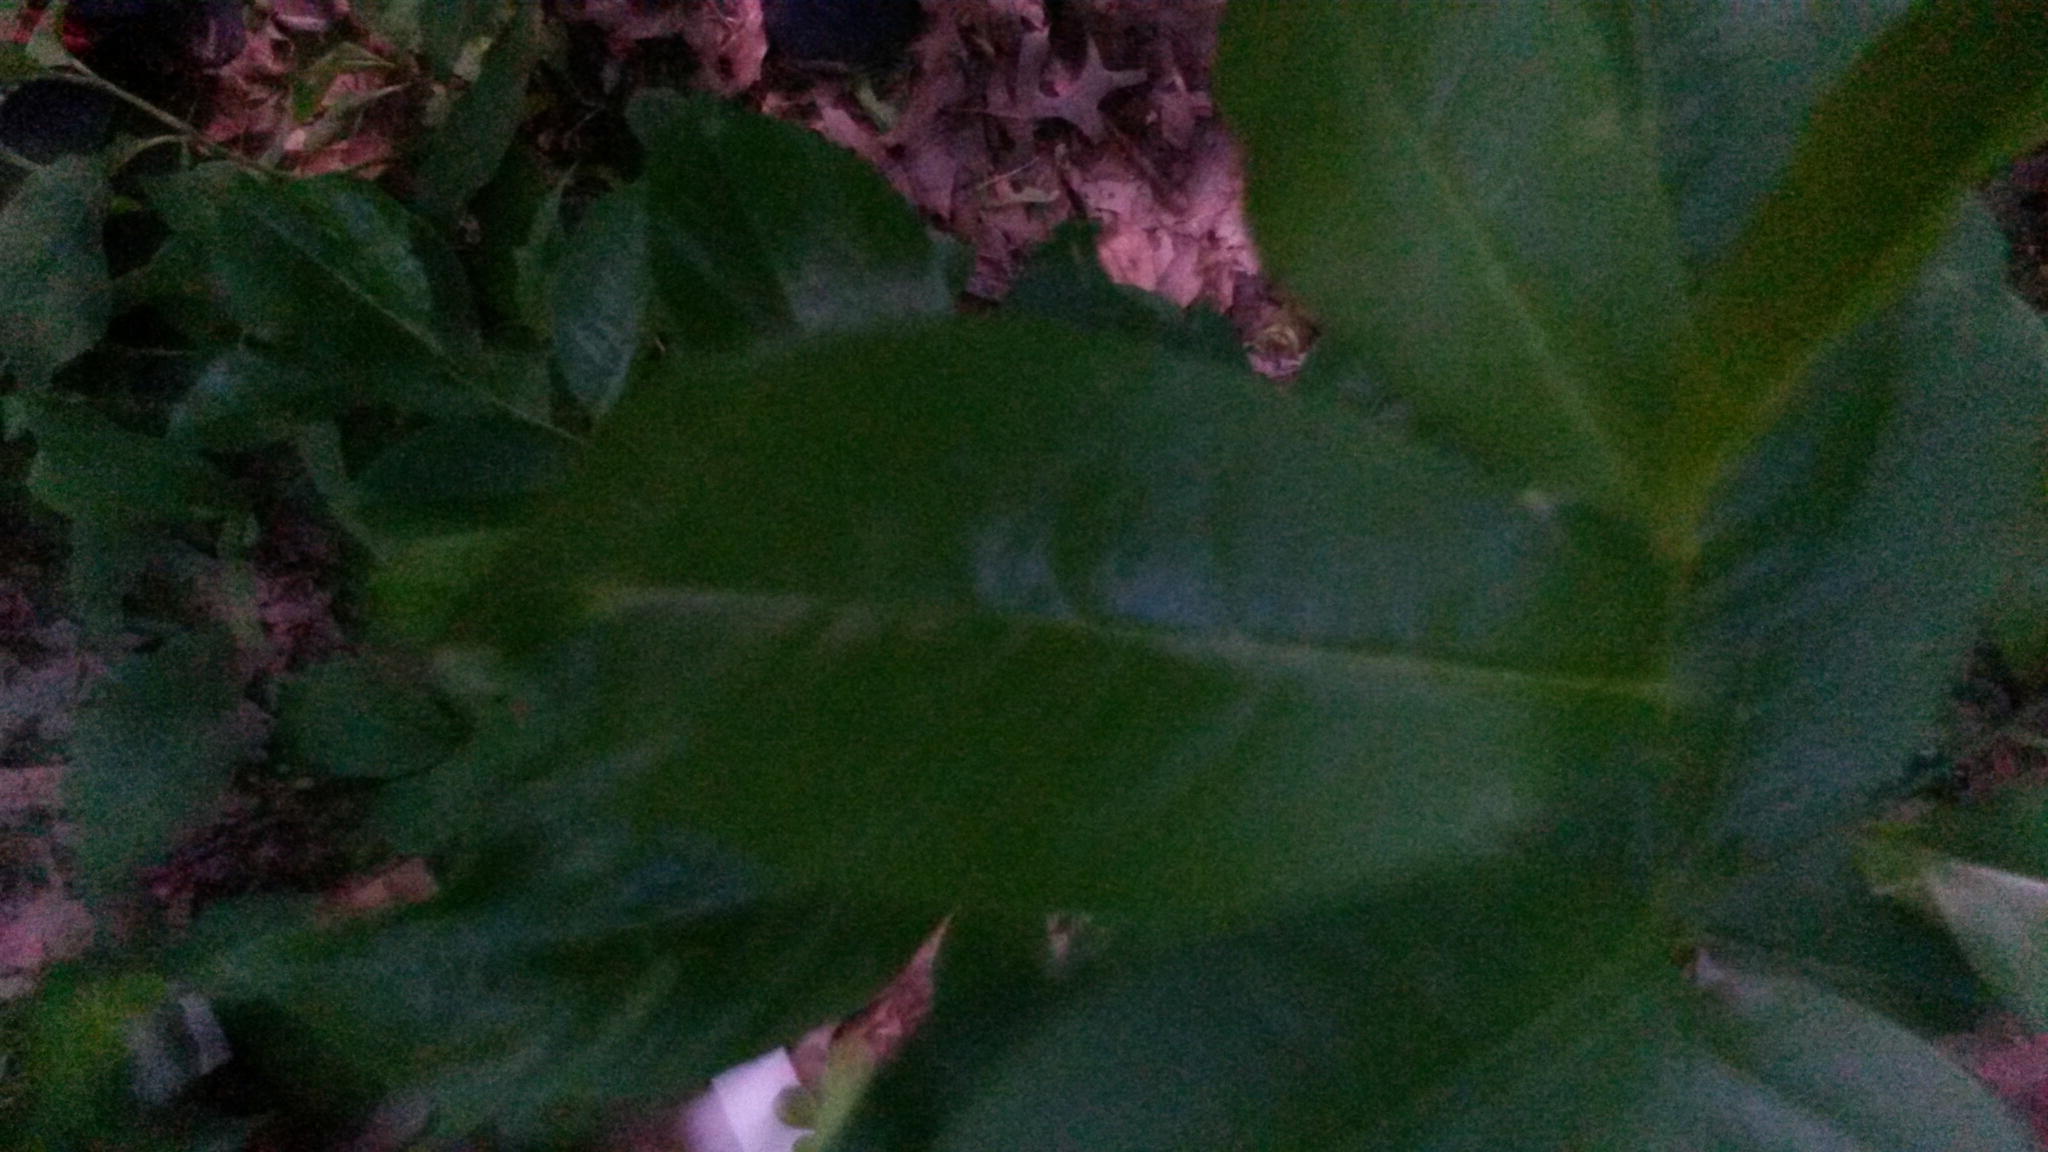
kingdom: Plantae
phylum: Tracheophyta
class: Magnoliopsida
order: Rosales
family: Rosaceae
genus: Prunus
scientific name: Prunus serotina
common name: Black cherry
